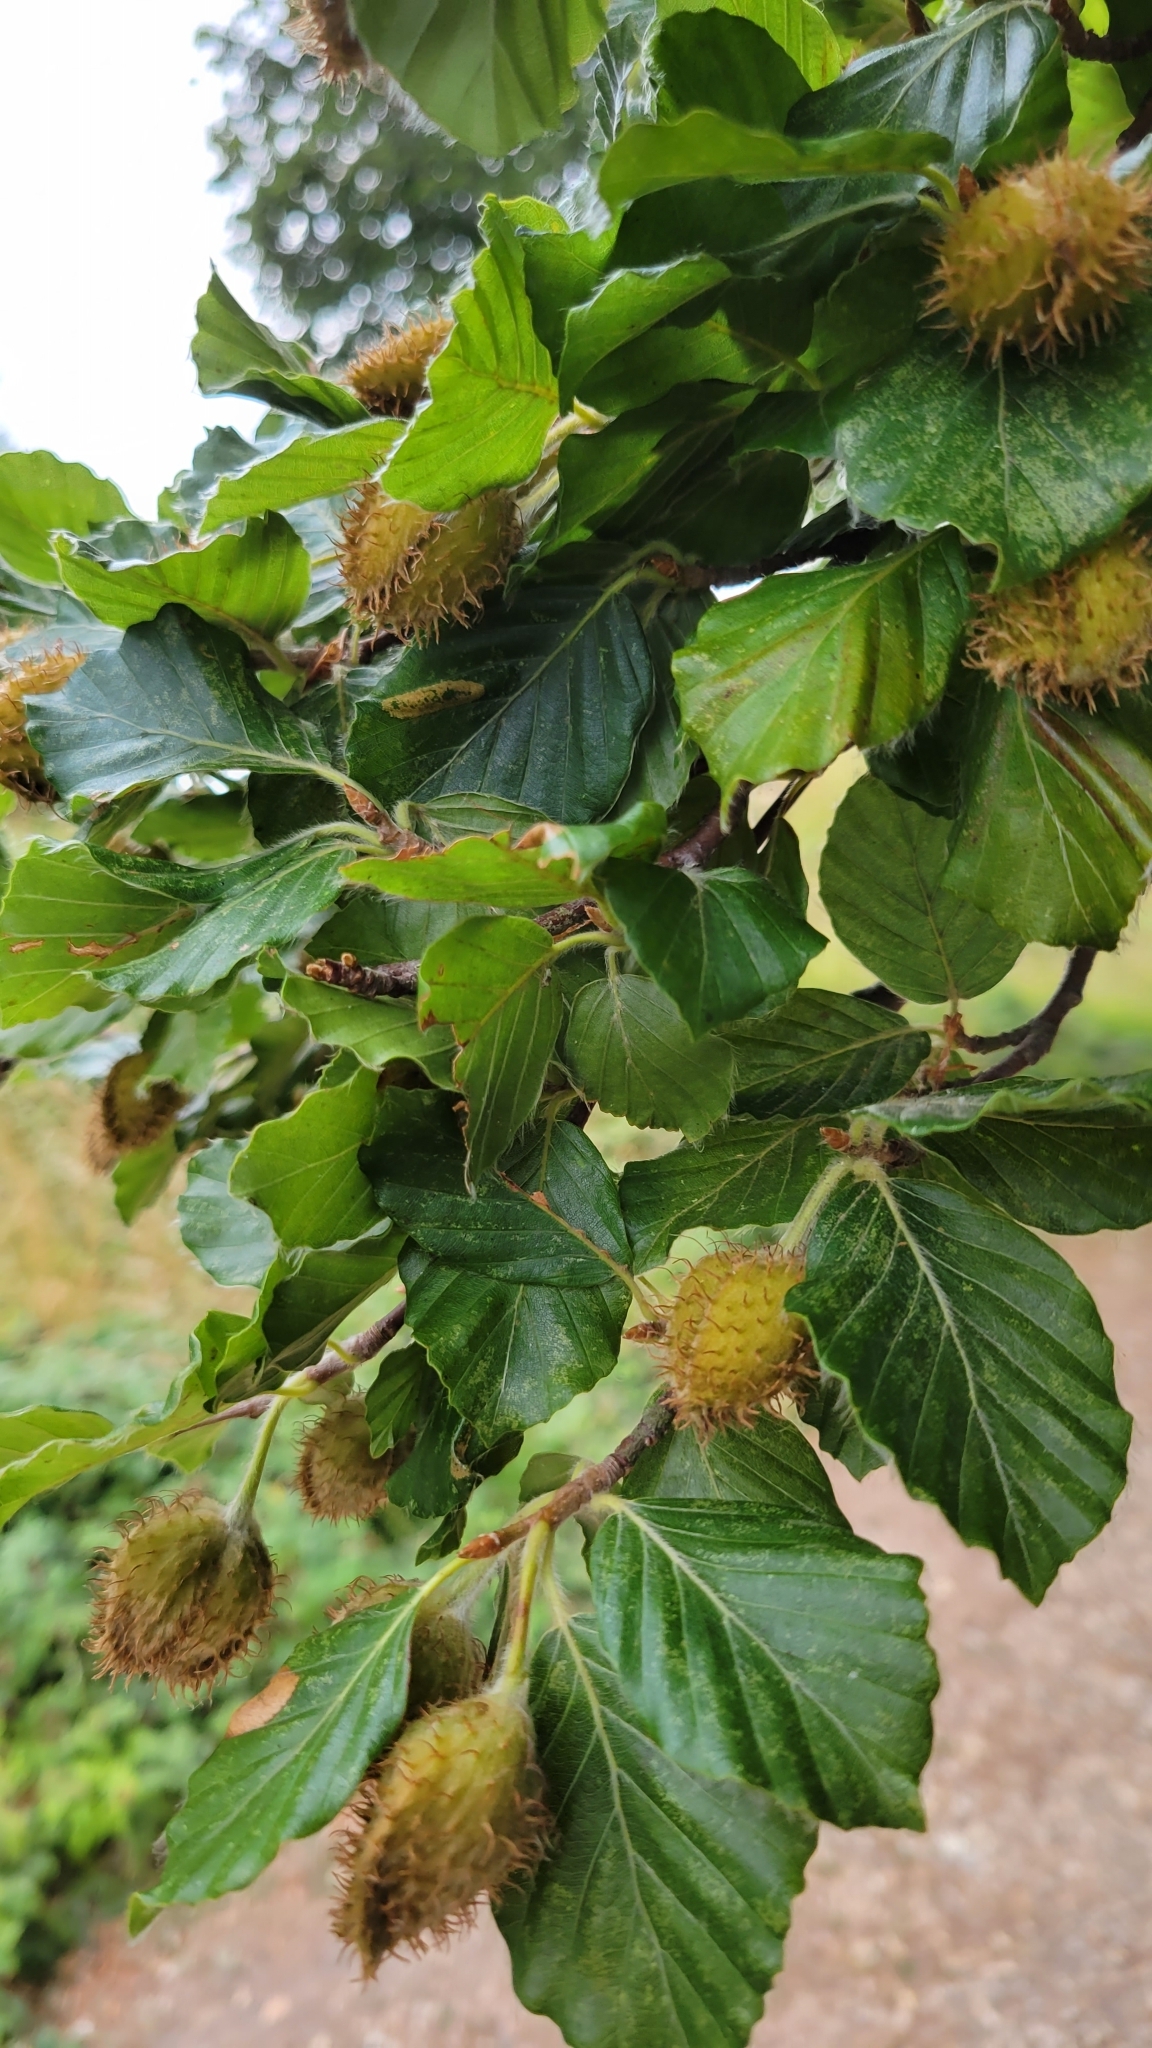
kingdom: Plantae
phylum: Tracheophyta
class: Magnoliopsida
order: Fagales
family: Fagaceae
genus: Fagus
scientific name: Fagus sylvatica
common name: Beech
